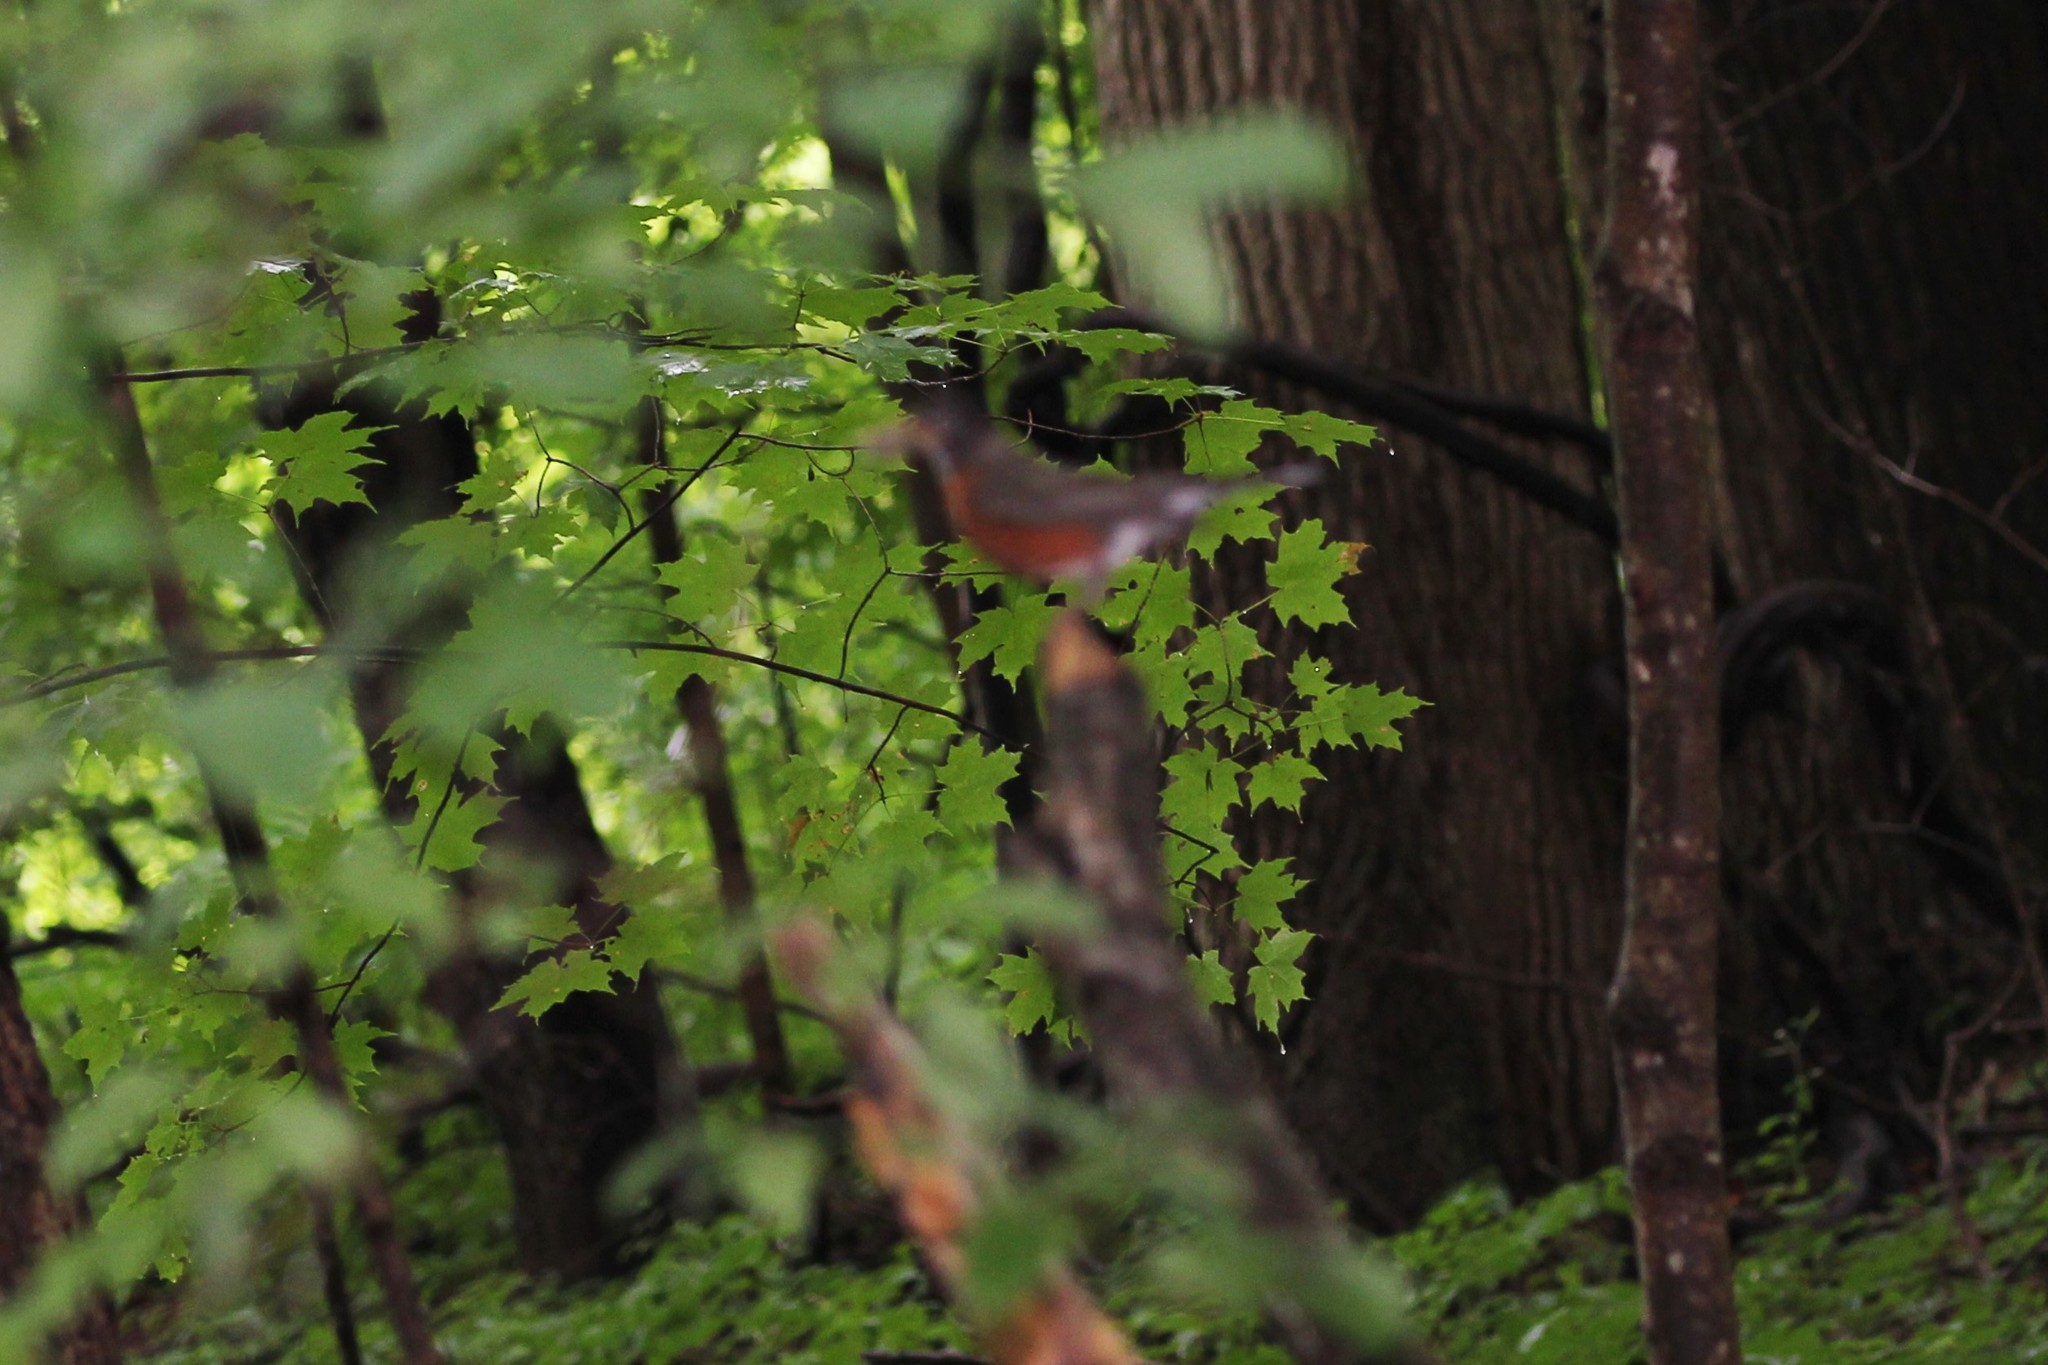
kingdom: Animalia
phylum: Chordata
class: Aves
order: Passeriformes
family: Turdidae
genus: Turdus
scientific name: Turdus migratorius
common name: American robin
